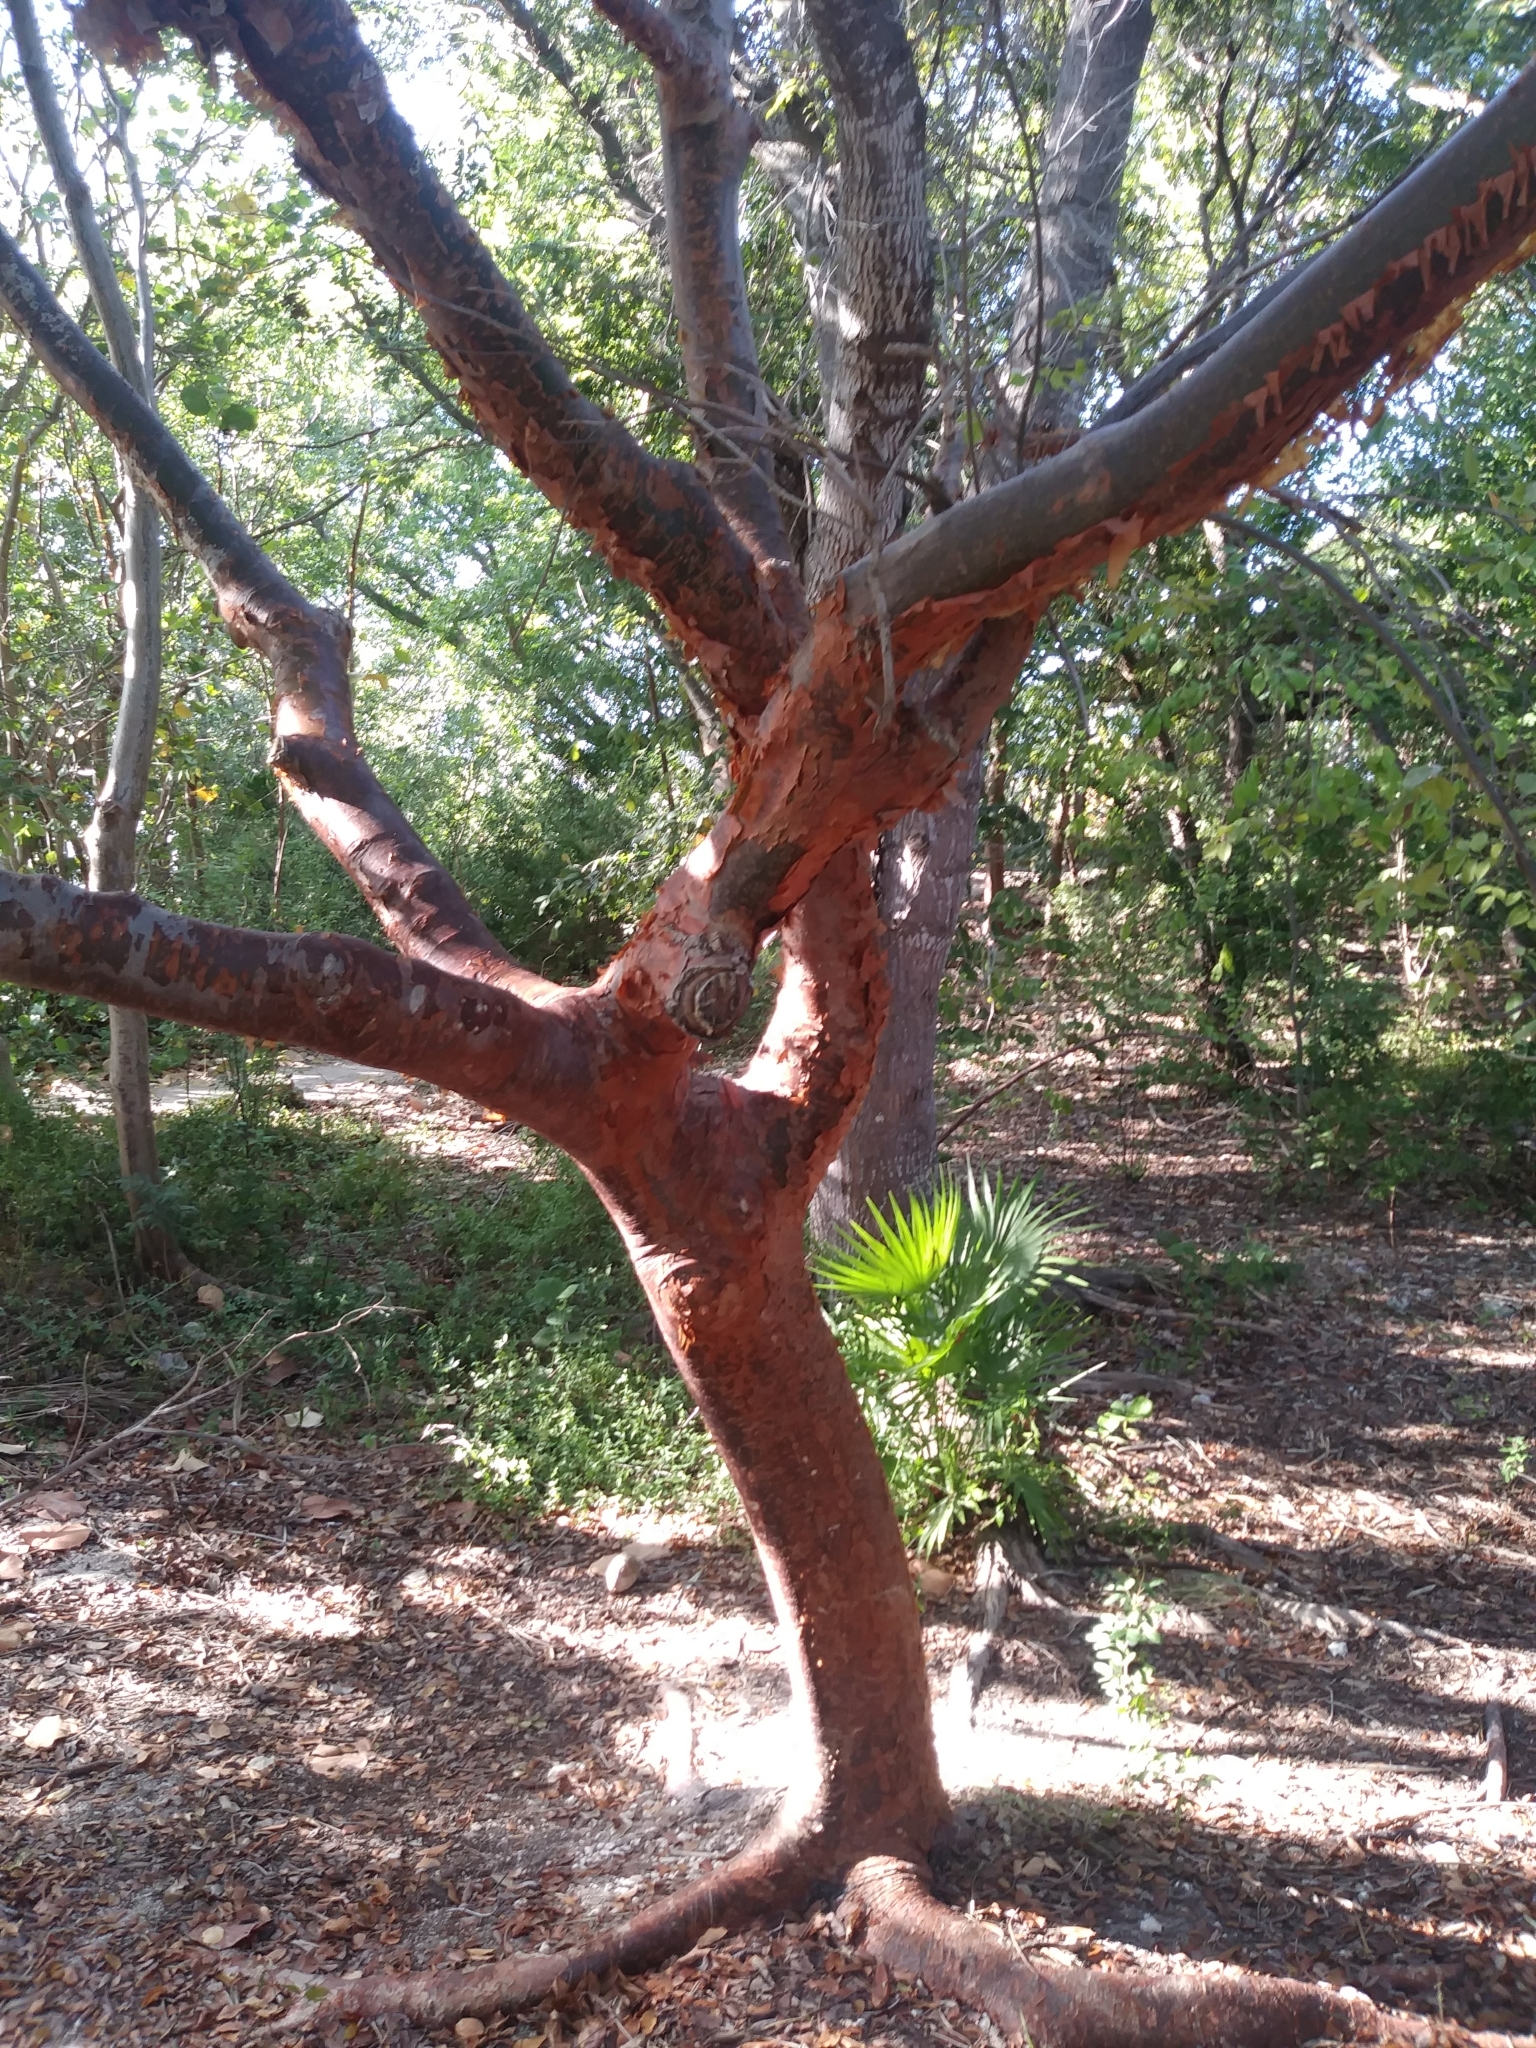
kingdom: Plantae
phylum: Tracheophyta
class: Magnoliopsida
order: Sapindales
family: Burseraceae
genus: Bursera
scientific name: Bursera simaruba
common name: Turpentine tree
